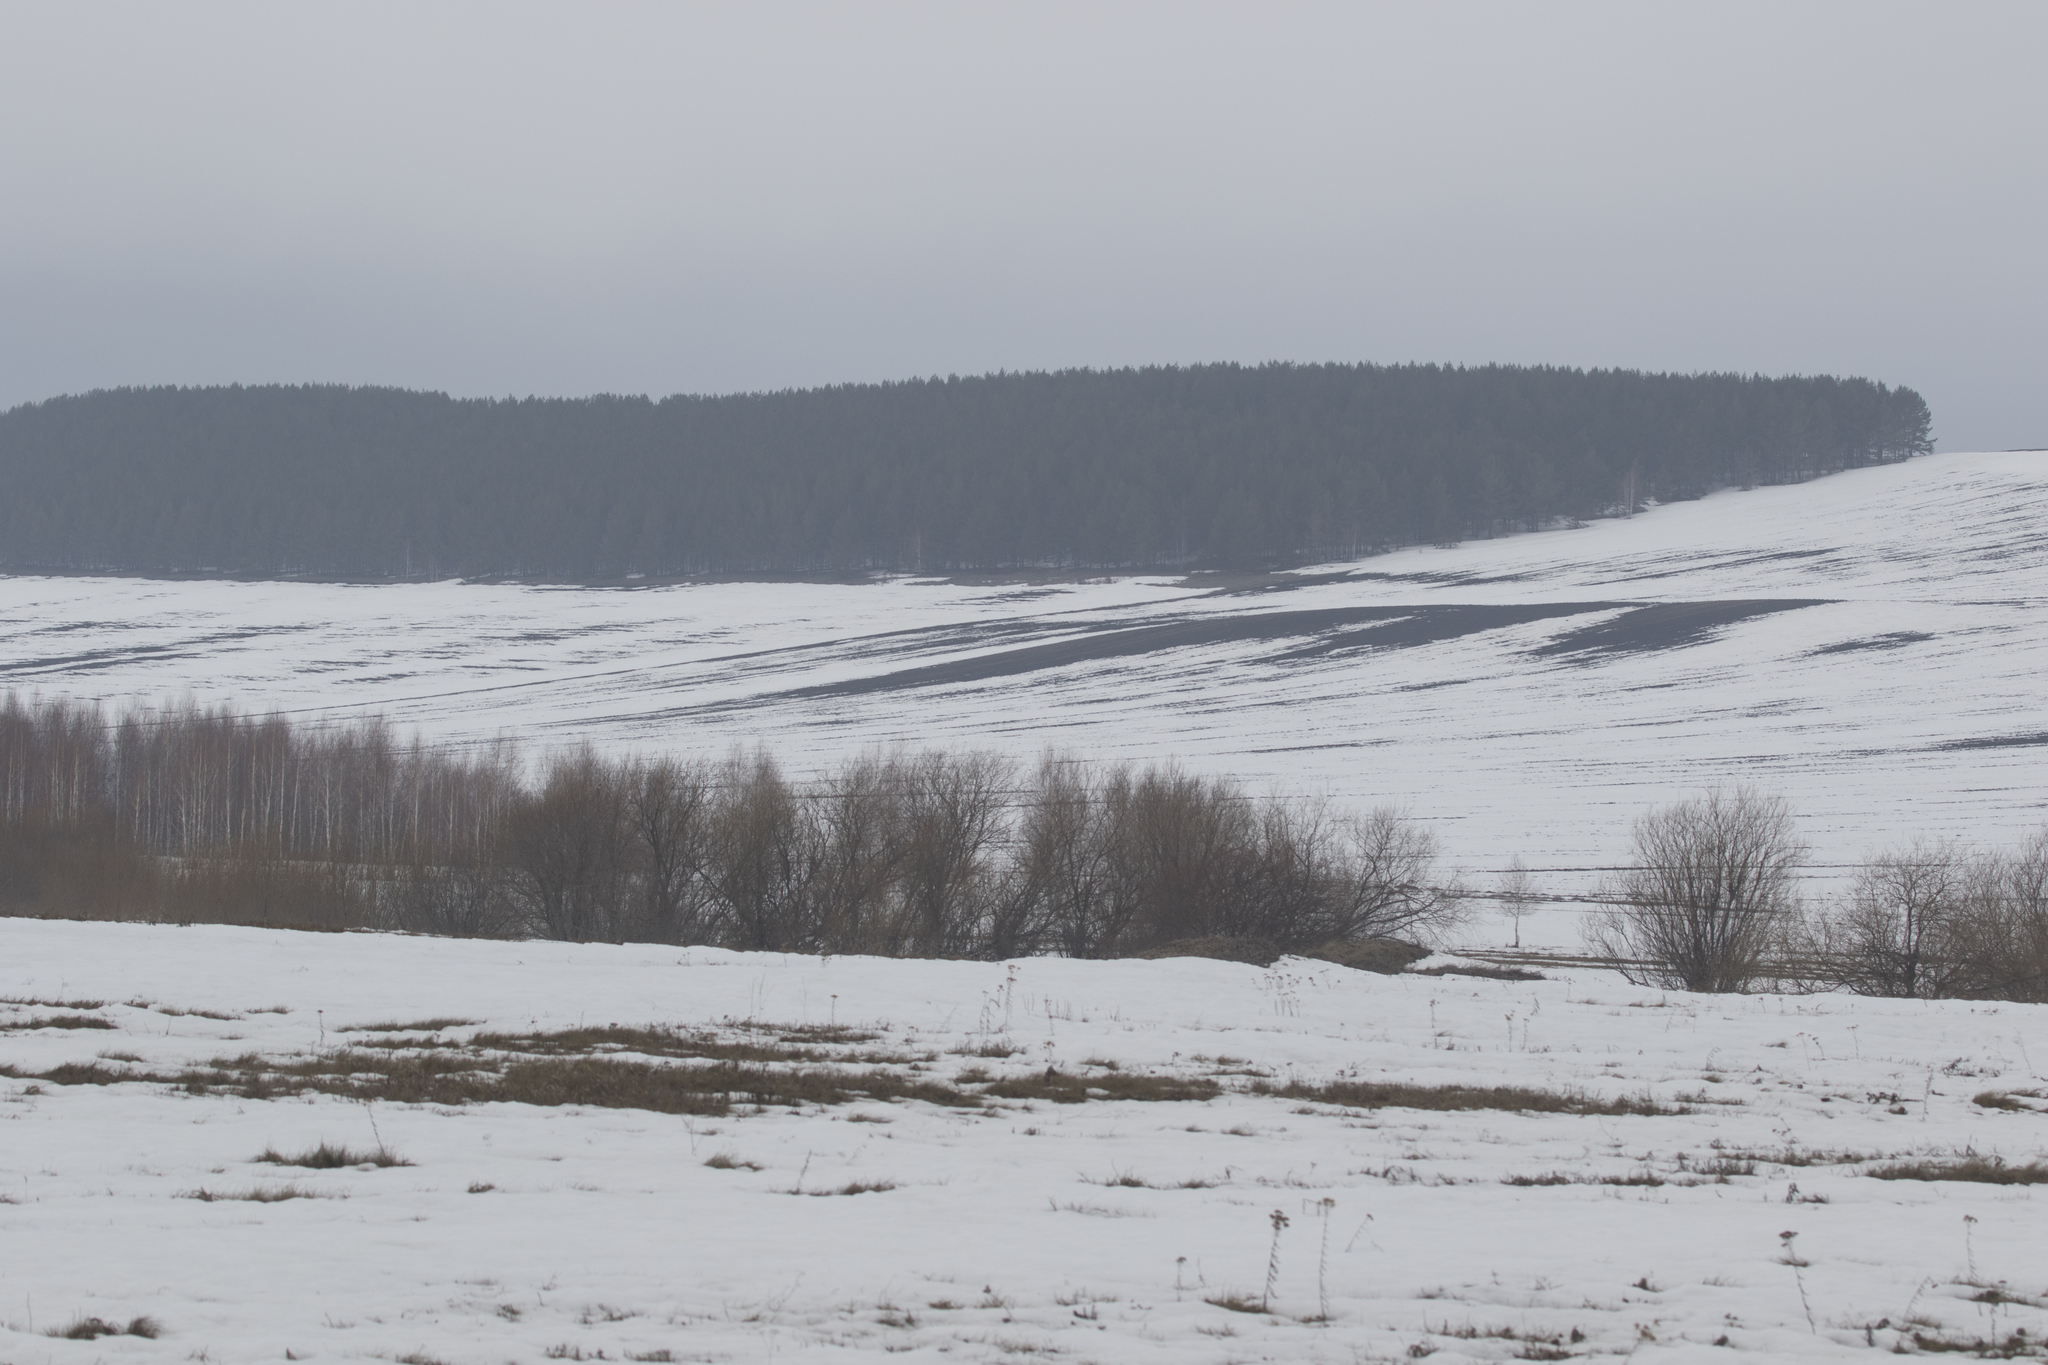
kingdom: Plantae
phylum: Tracheophyta
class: Pinopsida
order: Pinales
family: Pinaceae
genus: Pinus
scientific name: Pinus sylvestris
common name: Scots pine
